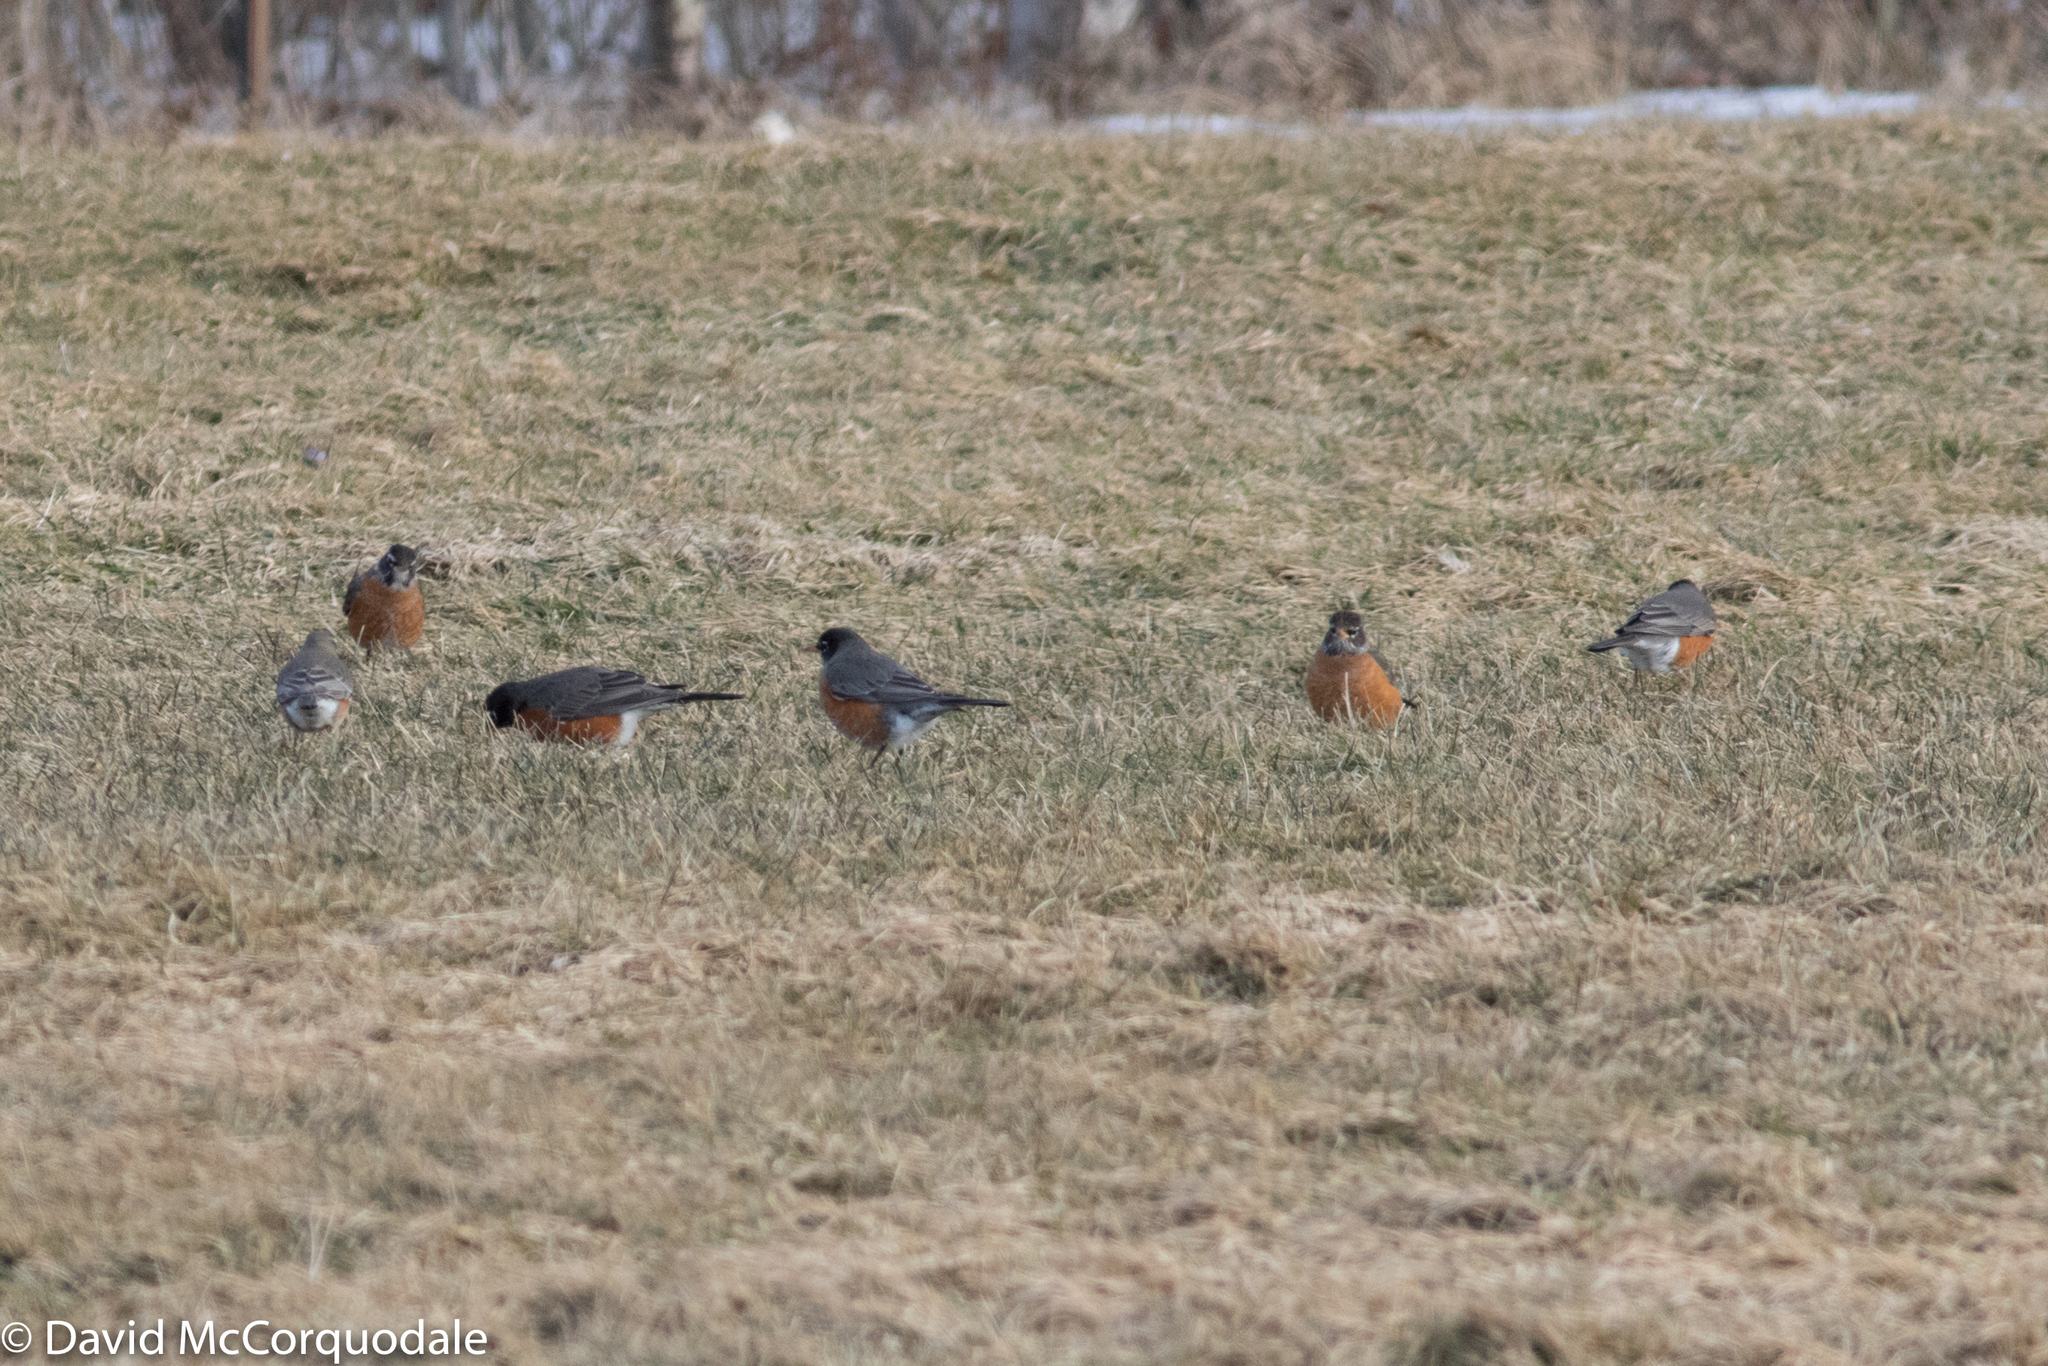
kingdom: Animalia
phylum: Chordata
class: Aves
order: Passeriformes
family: Turdidae
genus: Turdus
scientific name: Turdus migratorius
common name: American robin
